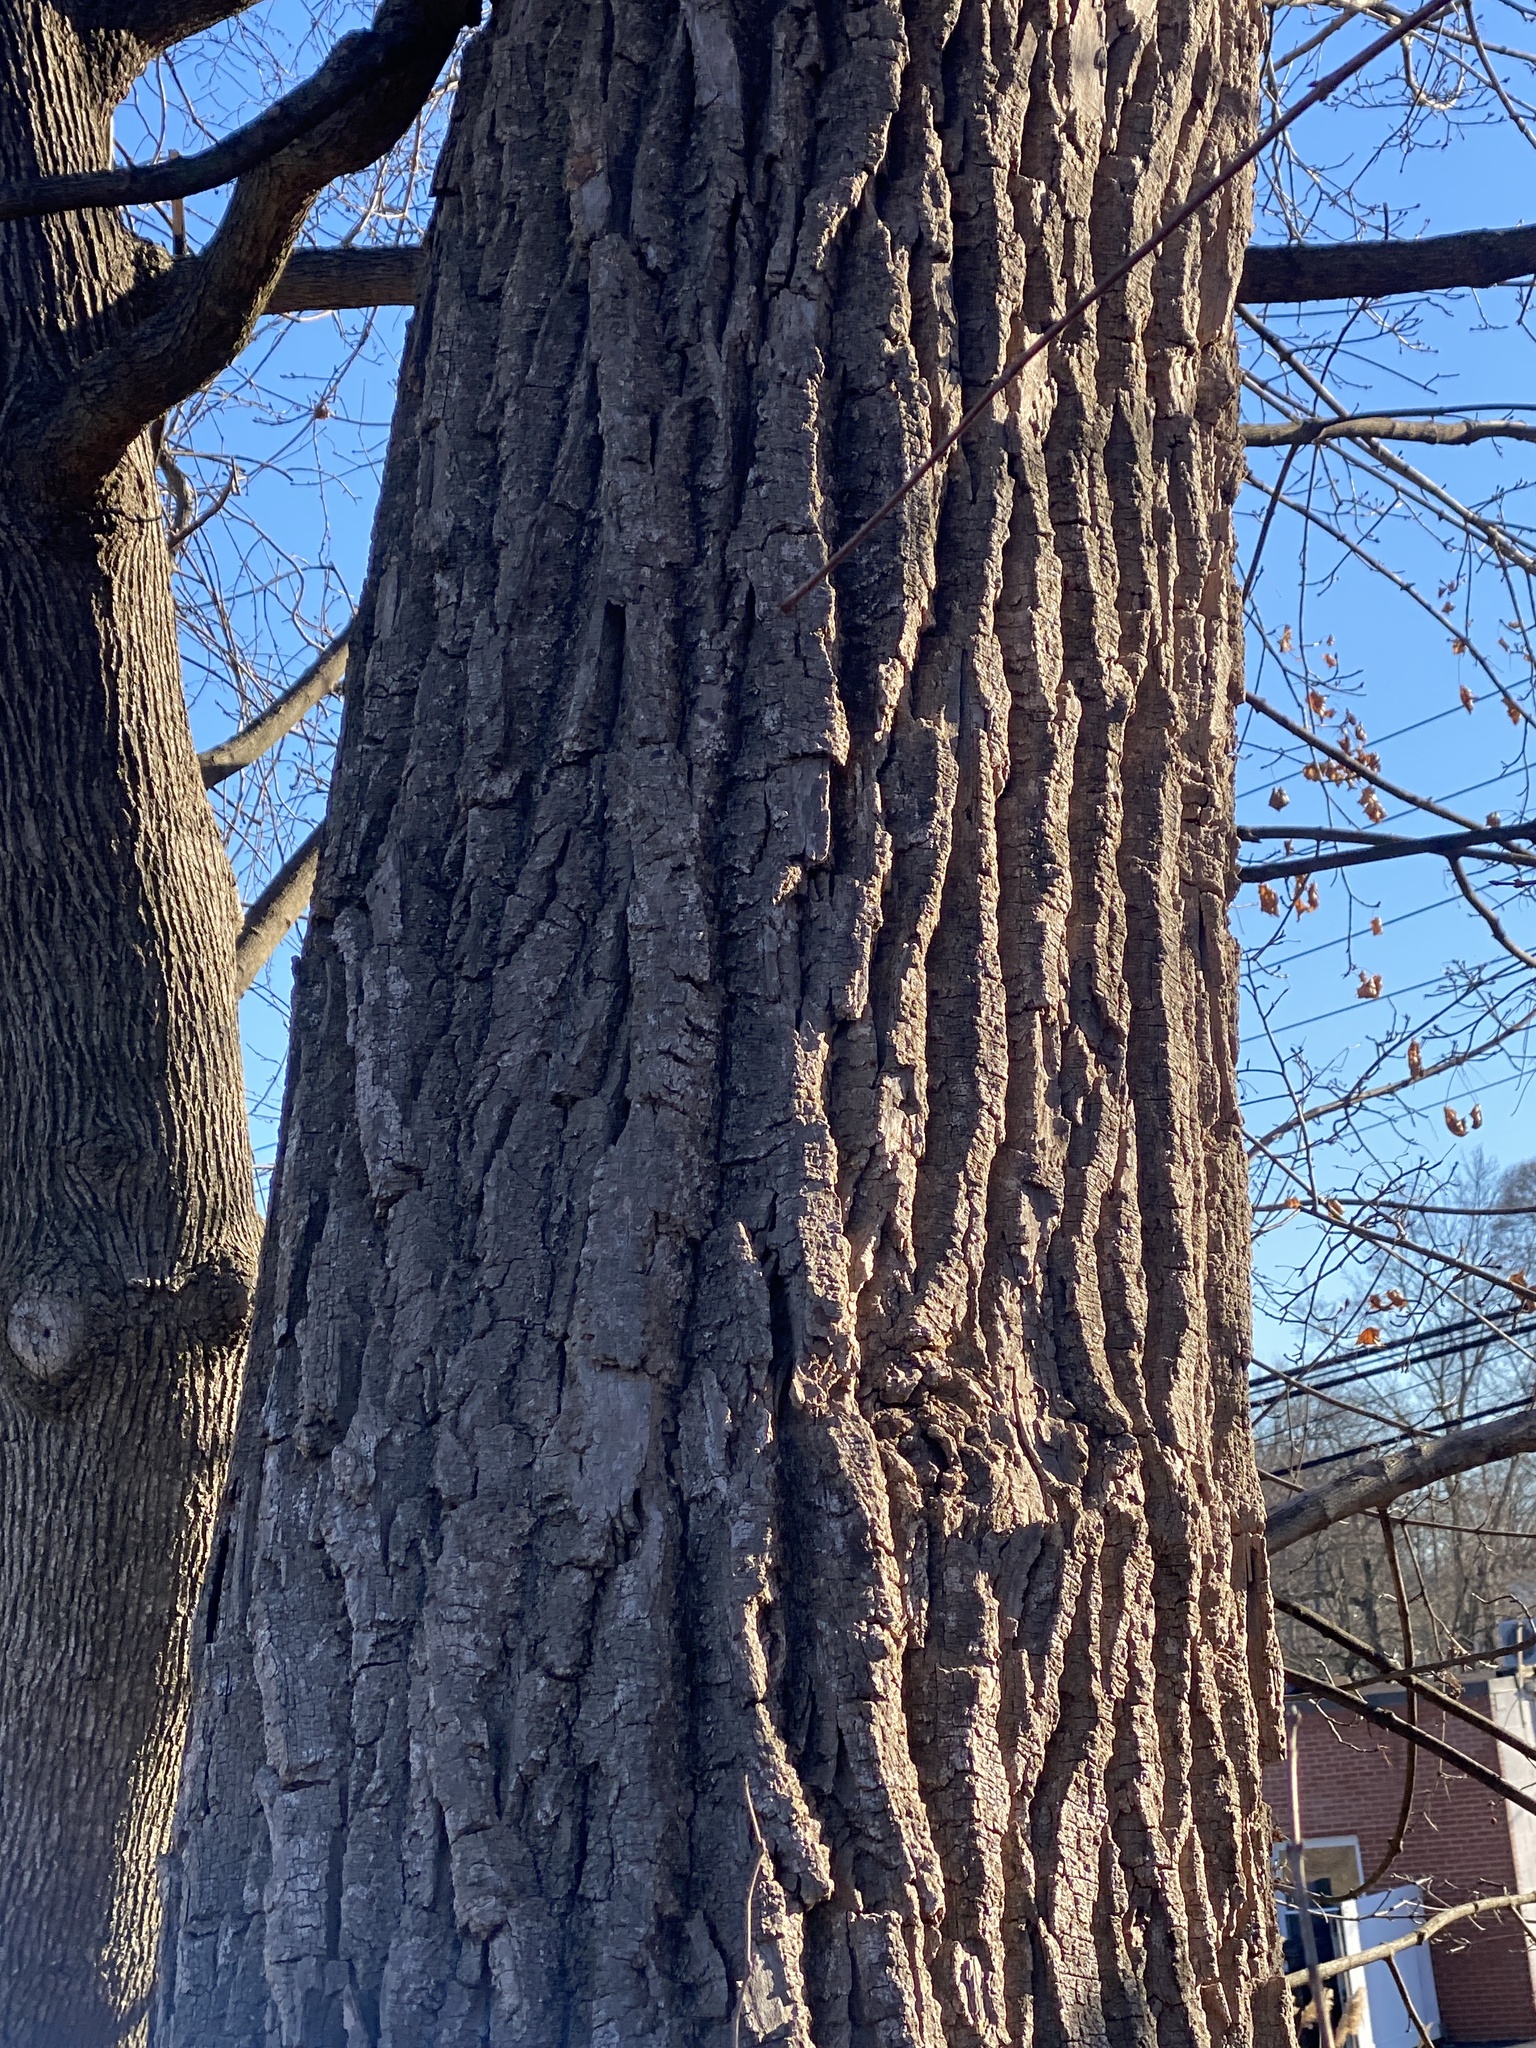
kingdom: Plantae
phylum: Tracheophyta
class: Magnoliopsida
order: Malpighiales
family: Salicaceae
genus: Populus
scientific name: Populus deltoides
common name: Eastern cottonwood
